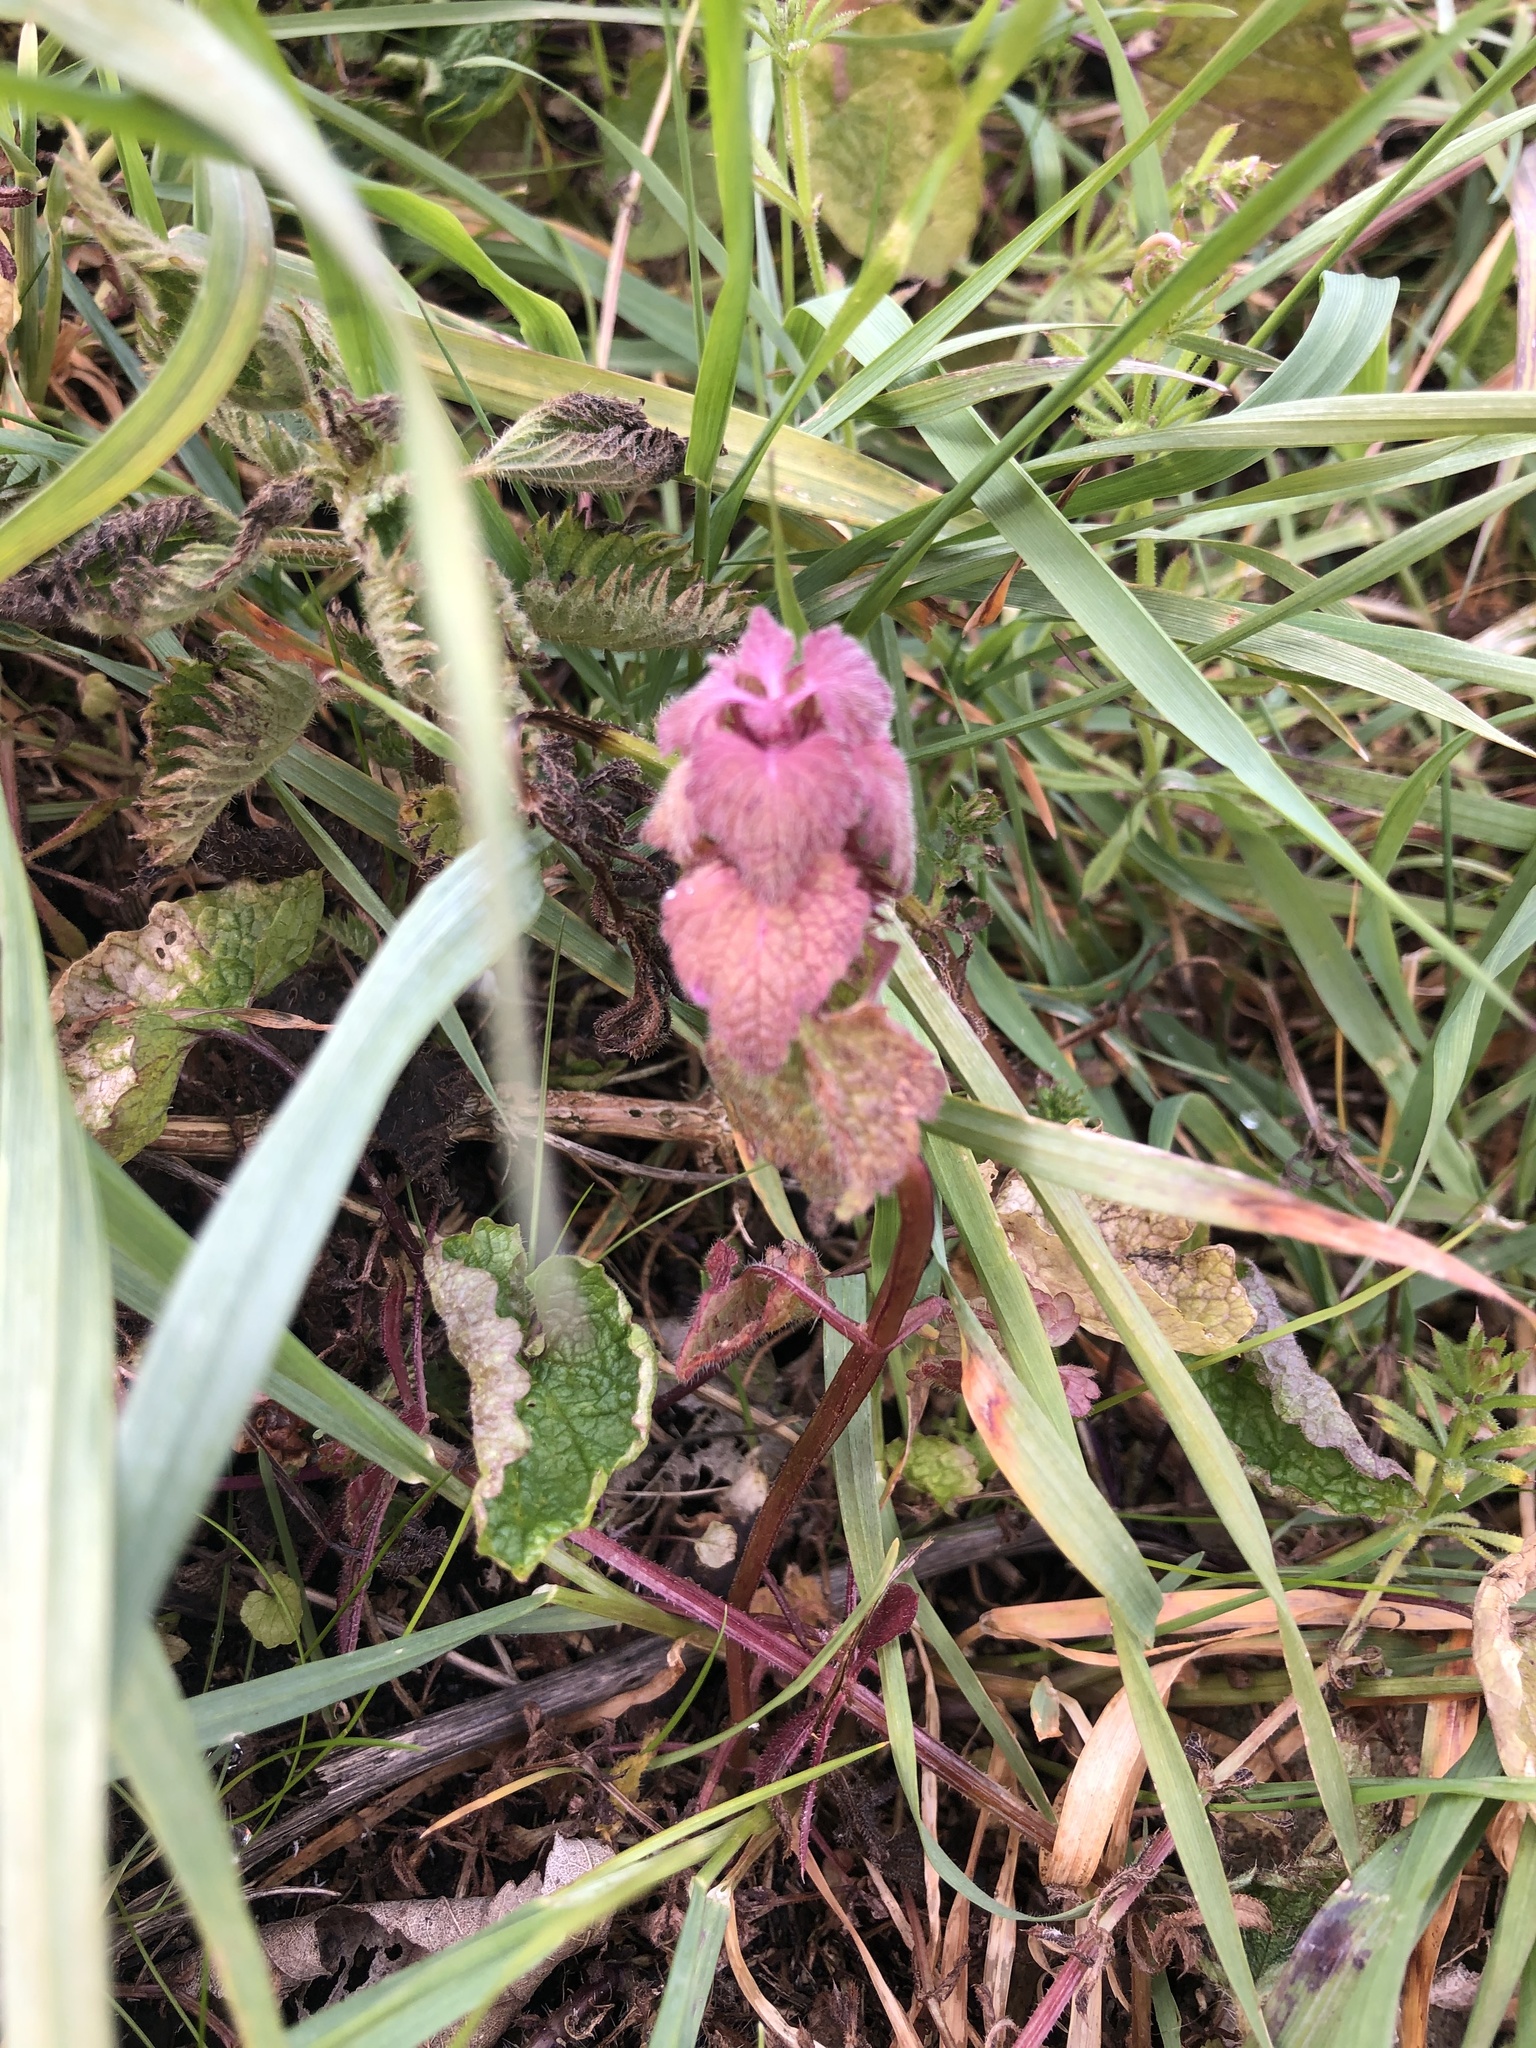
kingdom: Plantae
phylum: Tracheophyta
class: Magnoliopsida
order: Lamiales
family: Lamiaceae
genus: Lamium
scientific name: Lamium purpureum
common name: Red dead-nettle
